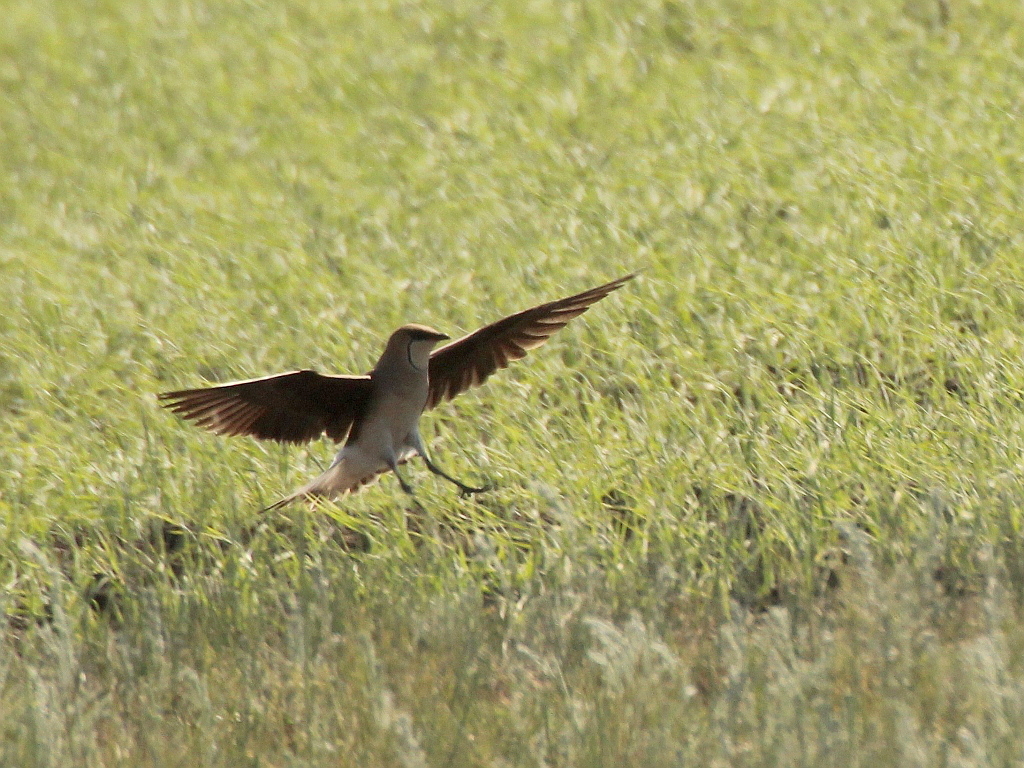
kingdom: Animalia
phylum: Chordata
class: Aves
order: Charadriiformes
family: Glareolidae
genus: Glareola
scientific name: Glareola nordmanni
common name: Black-winged pratincole
